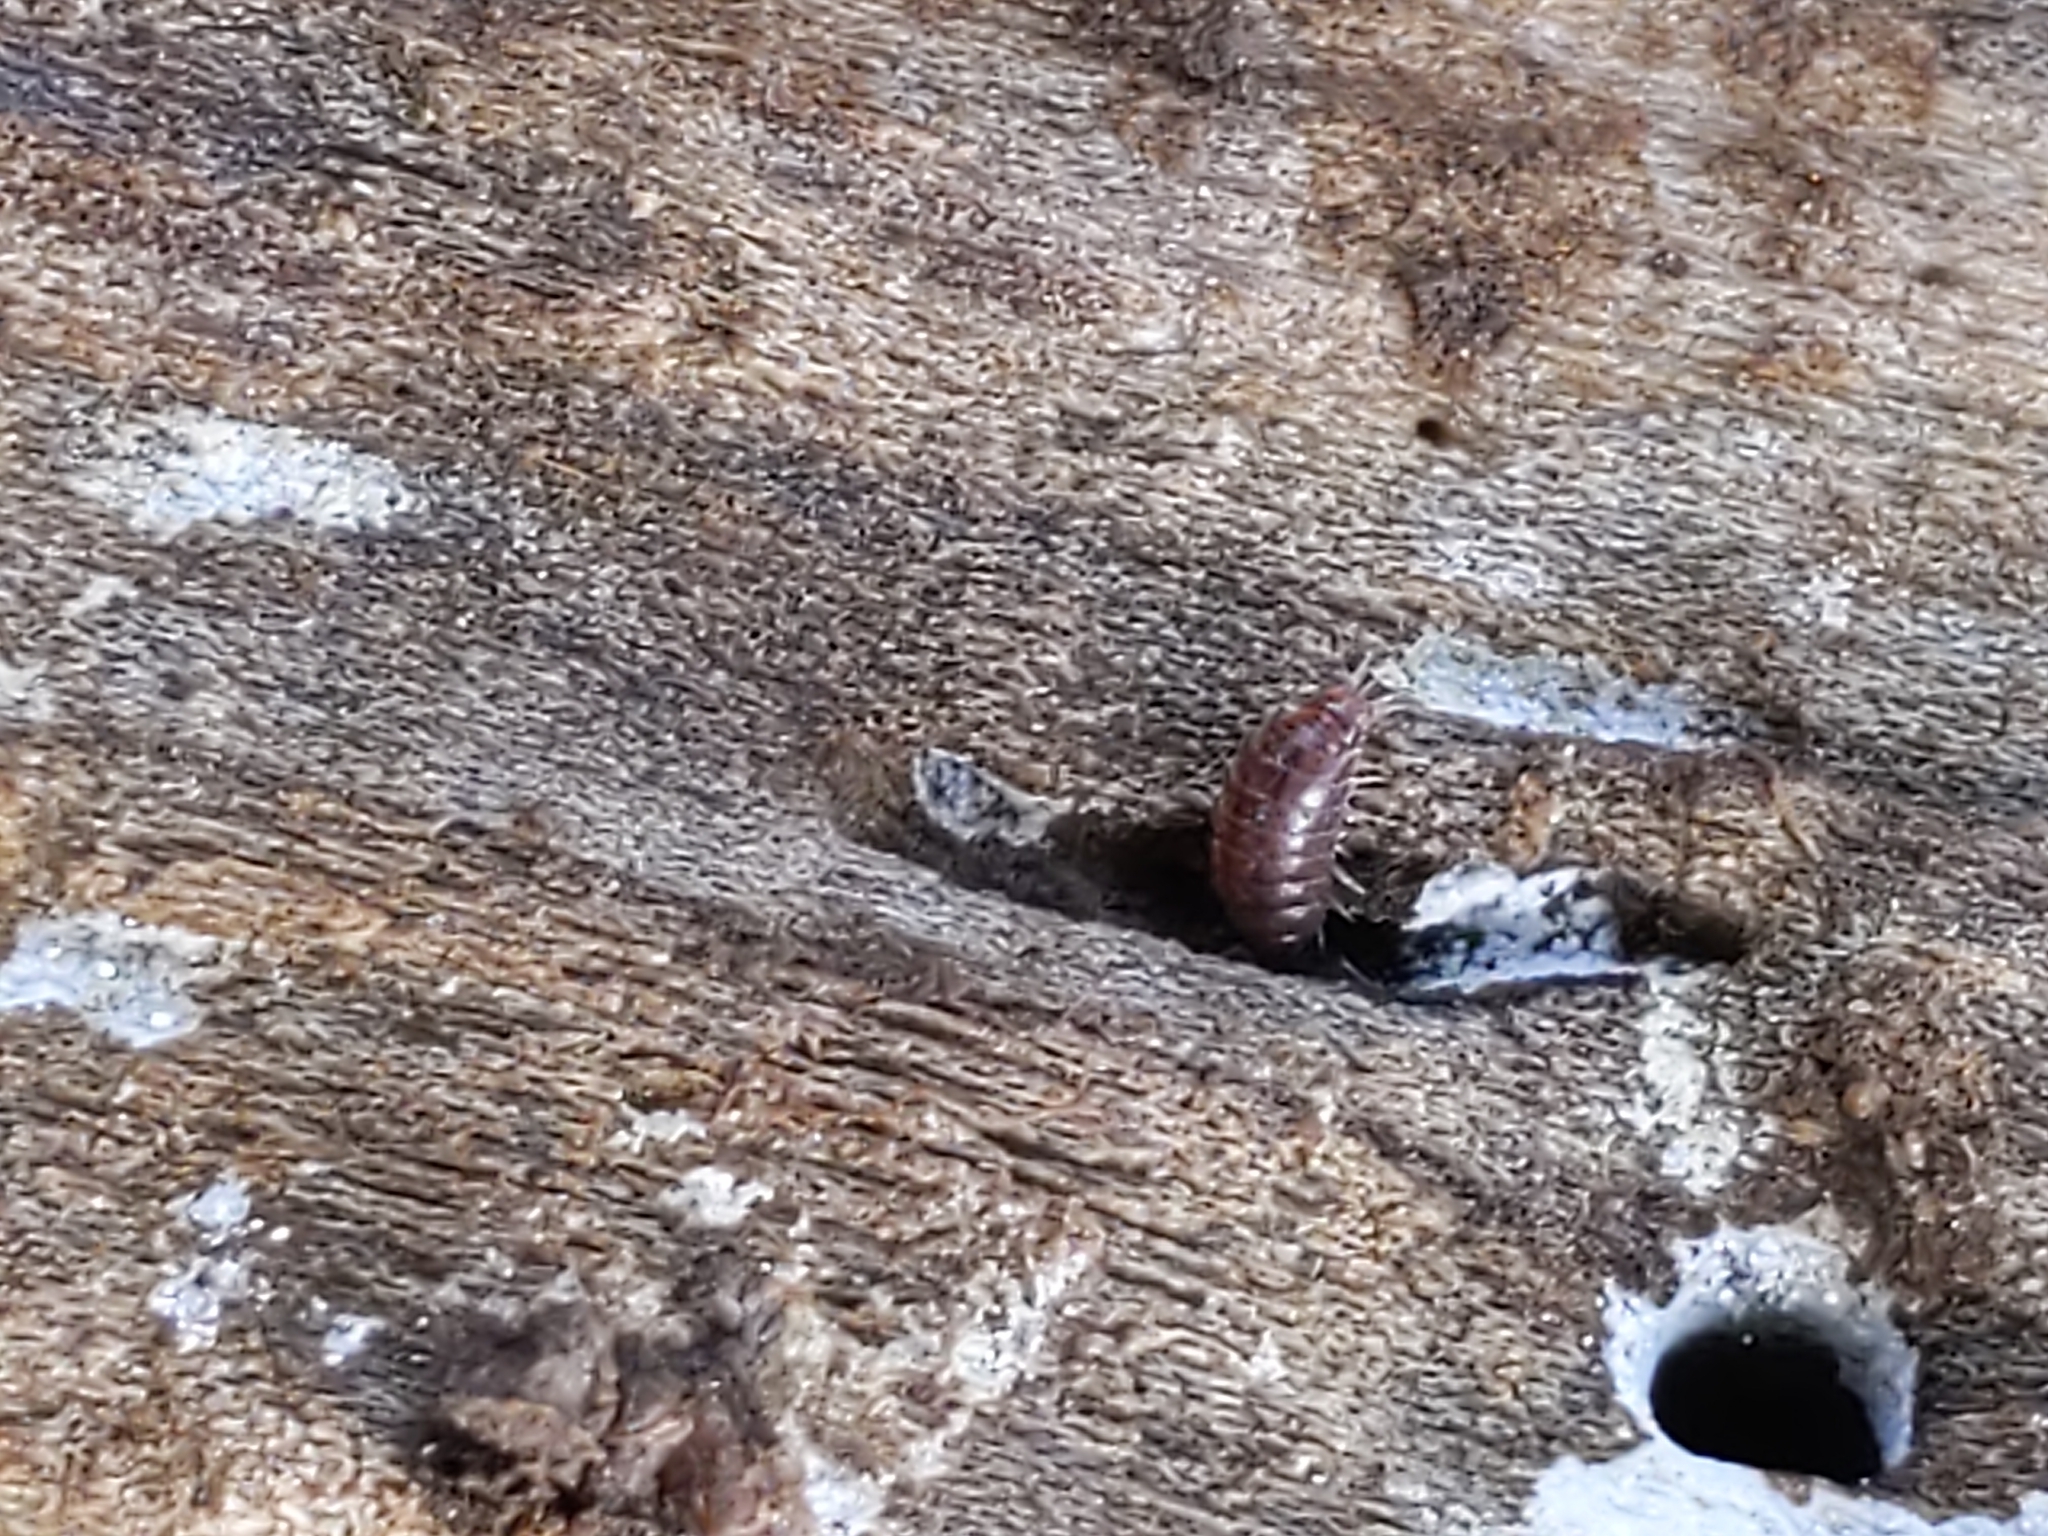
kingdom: Animalia
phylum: Arthropoda
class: Malacostraca
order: Isopoda
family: Trichoniscidae
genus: Hyloniscus
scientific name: Hyloniscus riparius
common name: Isopod
